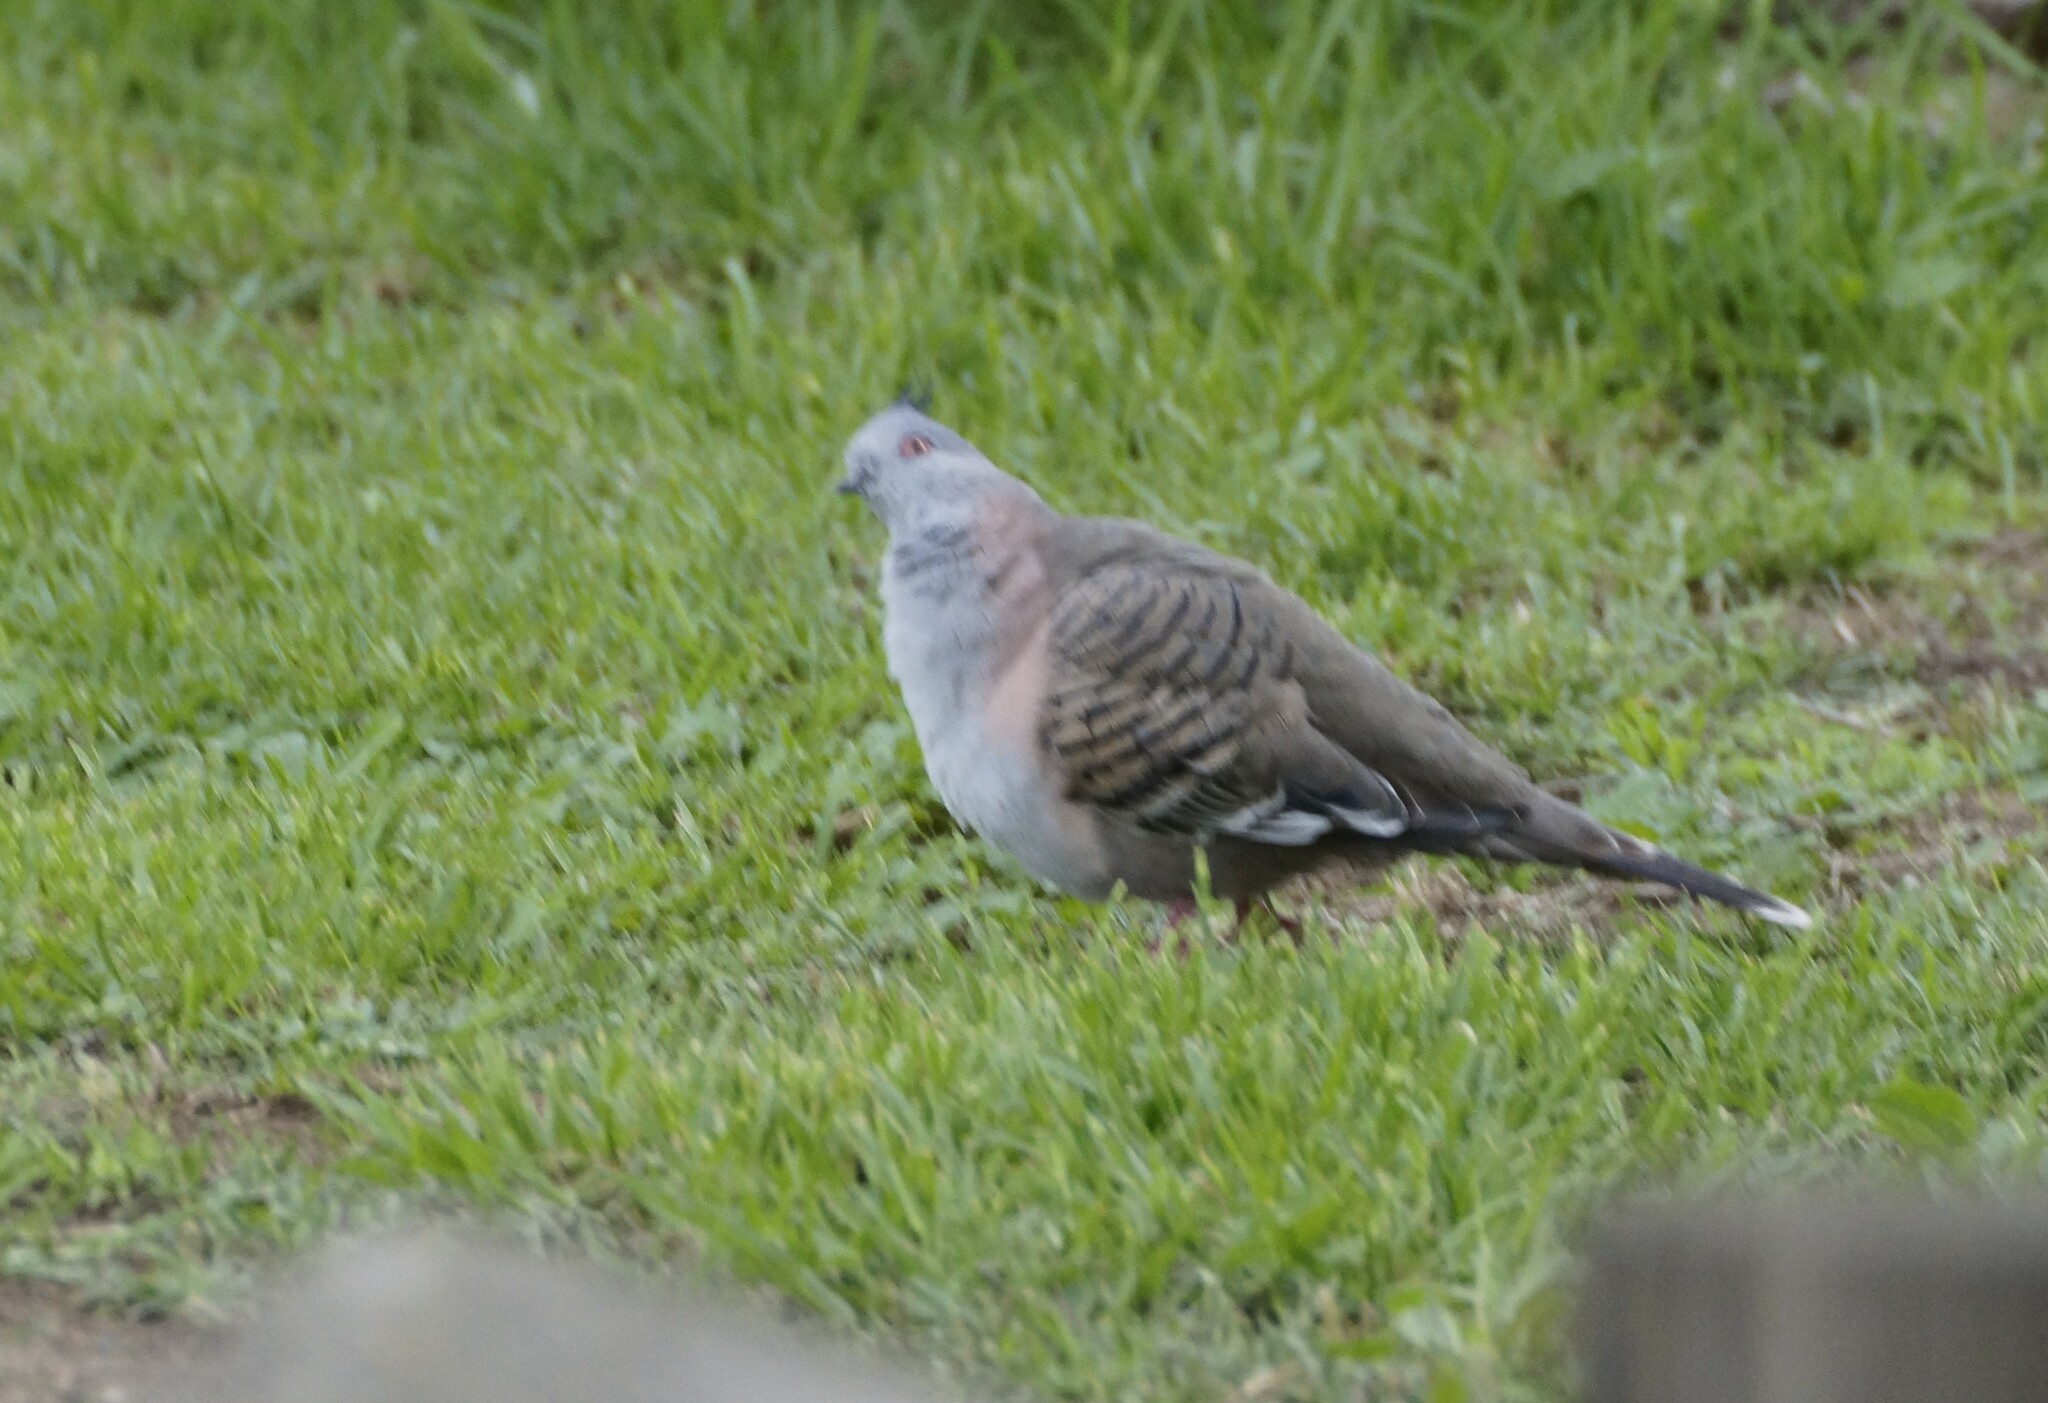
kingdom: Animalia
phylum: Chordata
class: Aves
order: Columbiformes
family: Columbidae
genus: Ocyphaps
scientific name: Ocyphaps lophotes
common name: Crested pigeon
